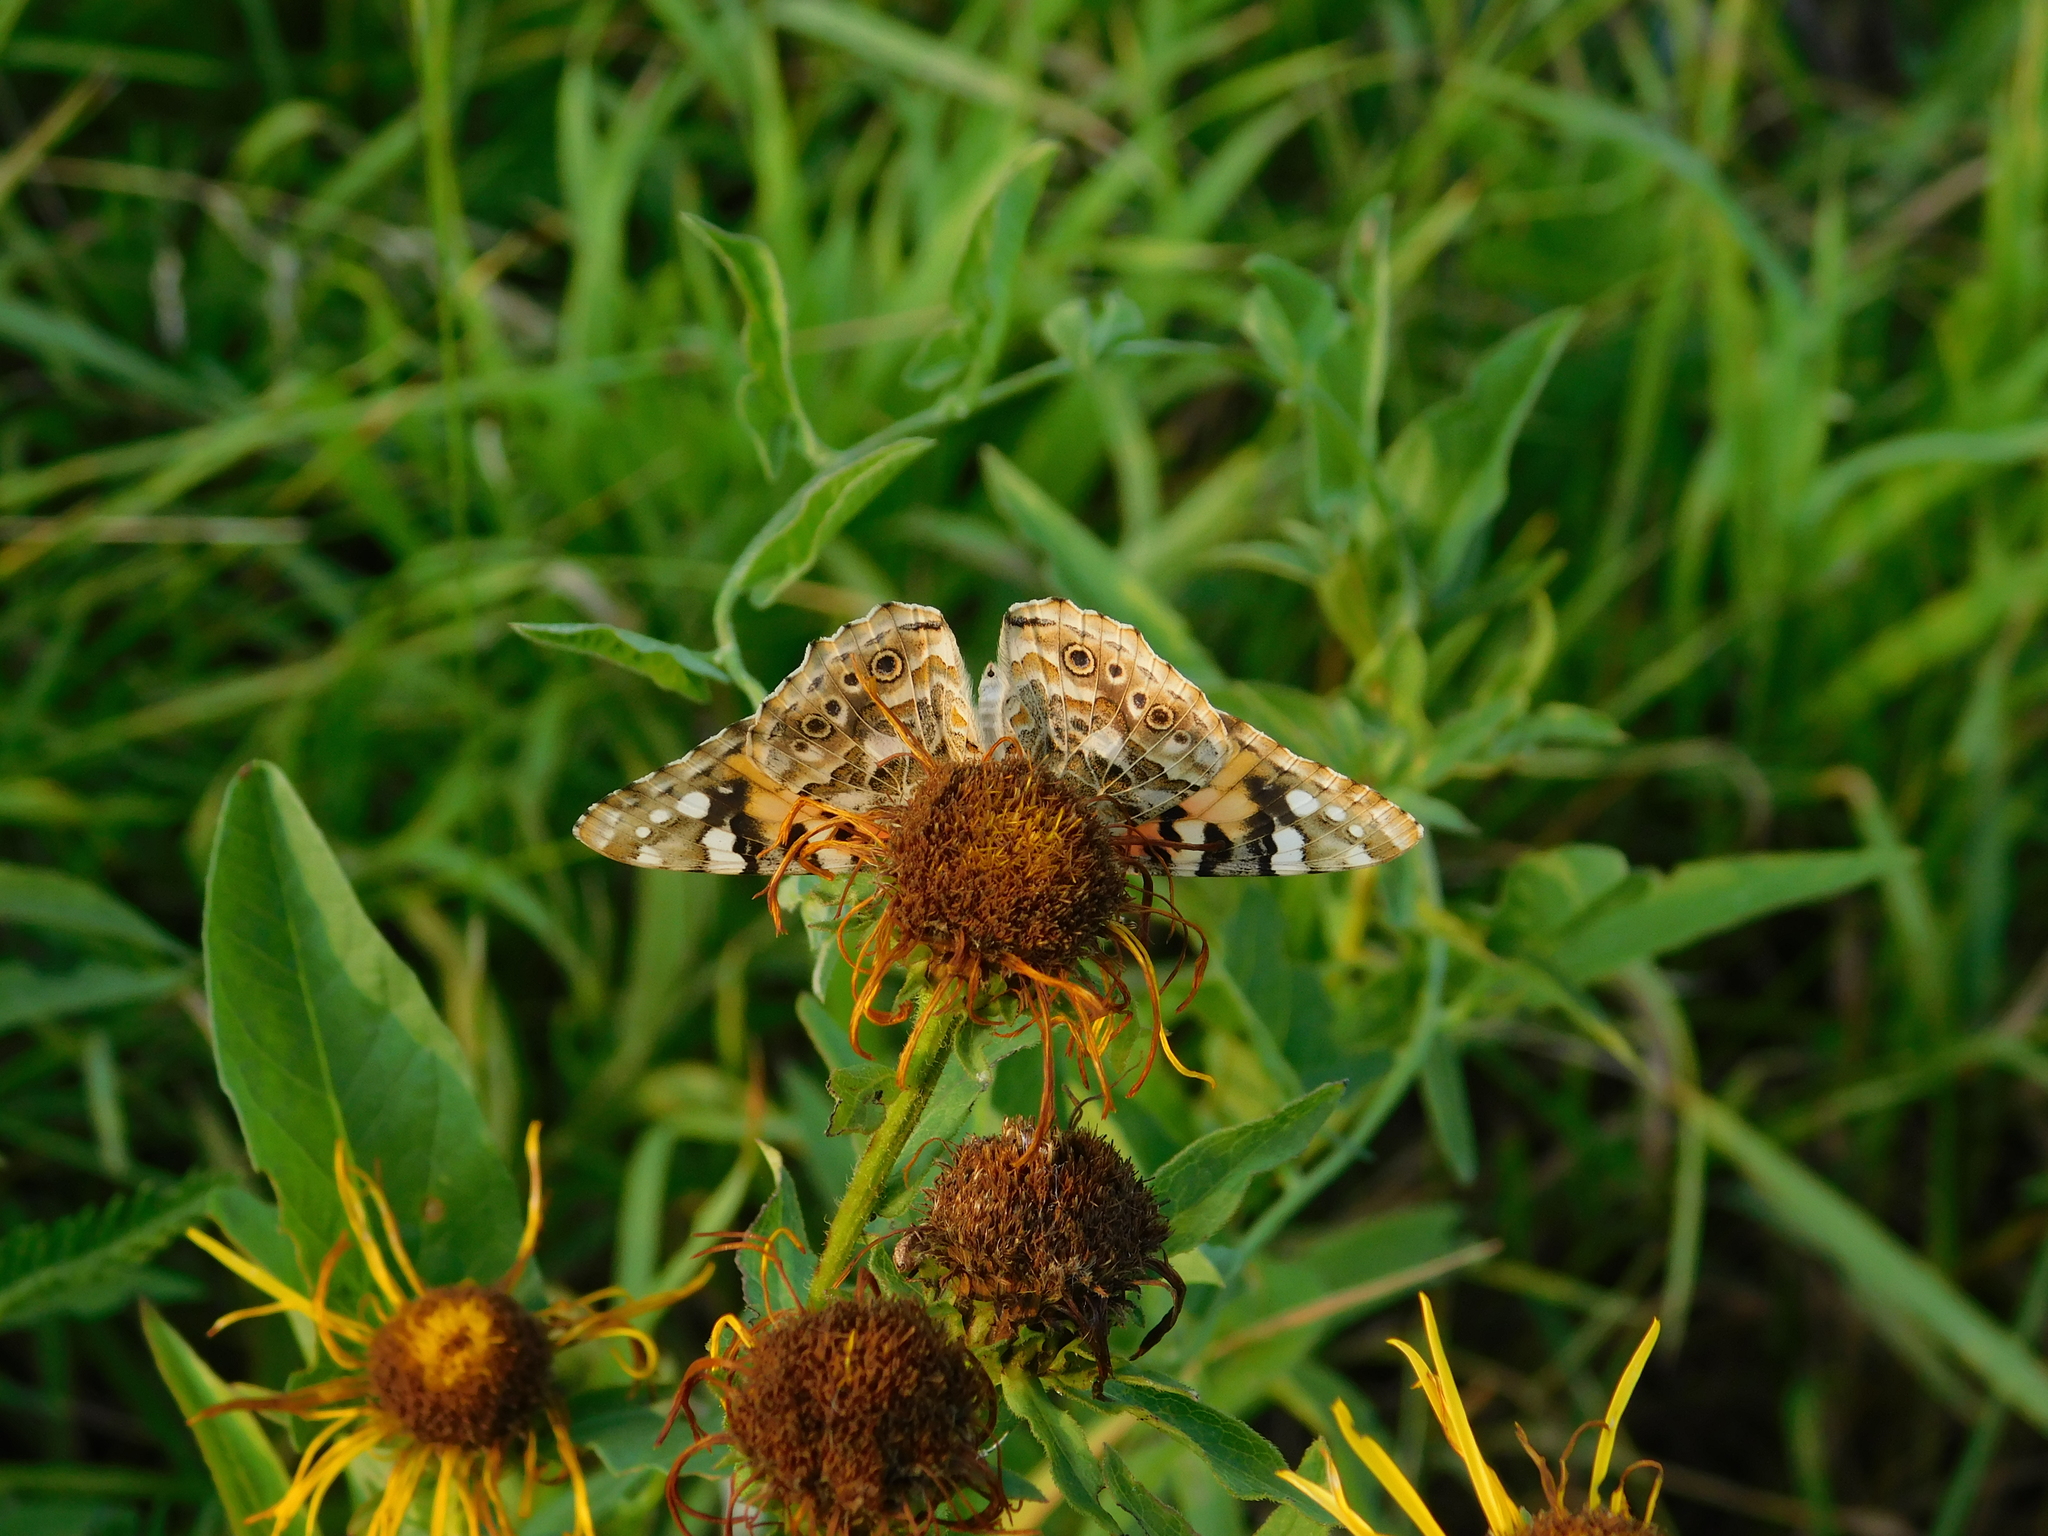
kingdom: Animalia
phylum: Arthropoda
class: Insecta
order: Lepidoptera
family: Nymphalidae
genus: Vanessa
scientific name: Vanessa cardui
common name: Painted lady
